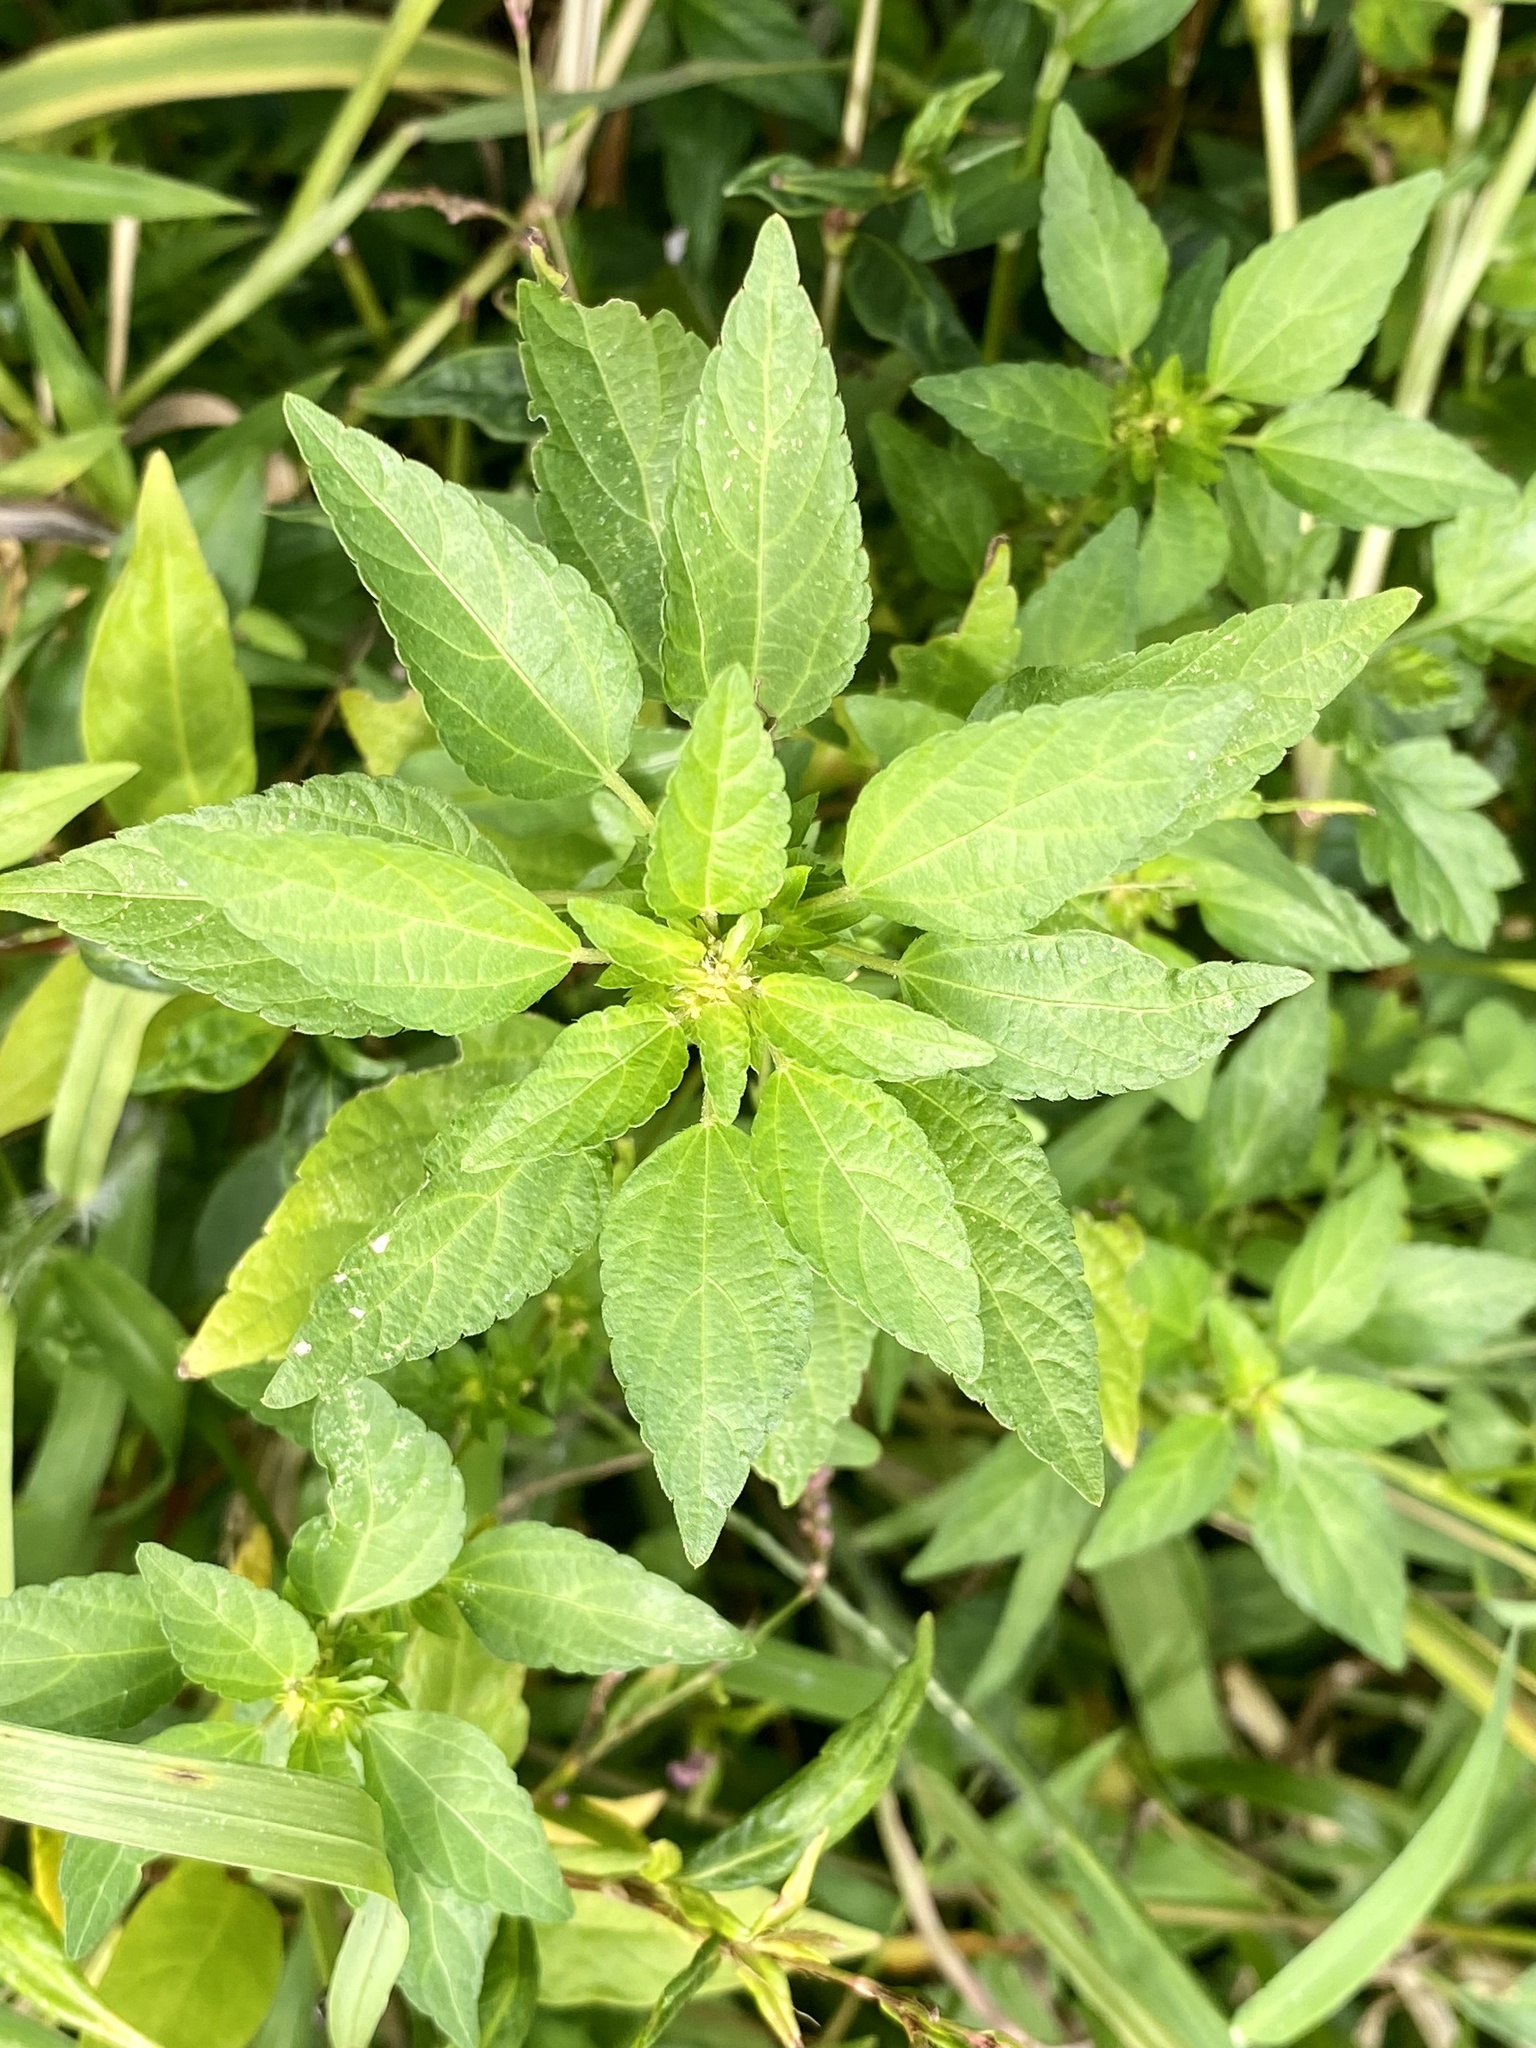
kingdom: Plantae
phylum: Tracheophyta
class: Magnoliopsida
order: Malpighiales
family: Euphorbiaceae
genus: Acalypha
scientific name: Acalypha rhomboidea
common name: Rhombic copperleaf
